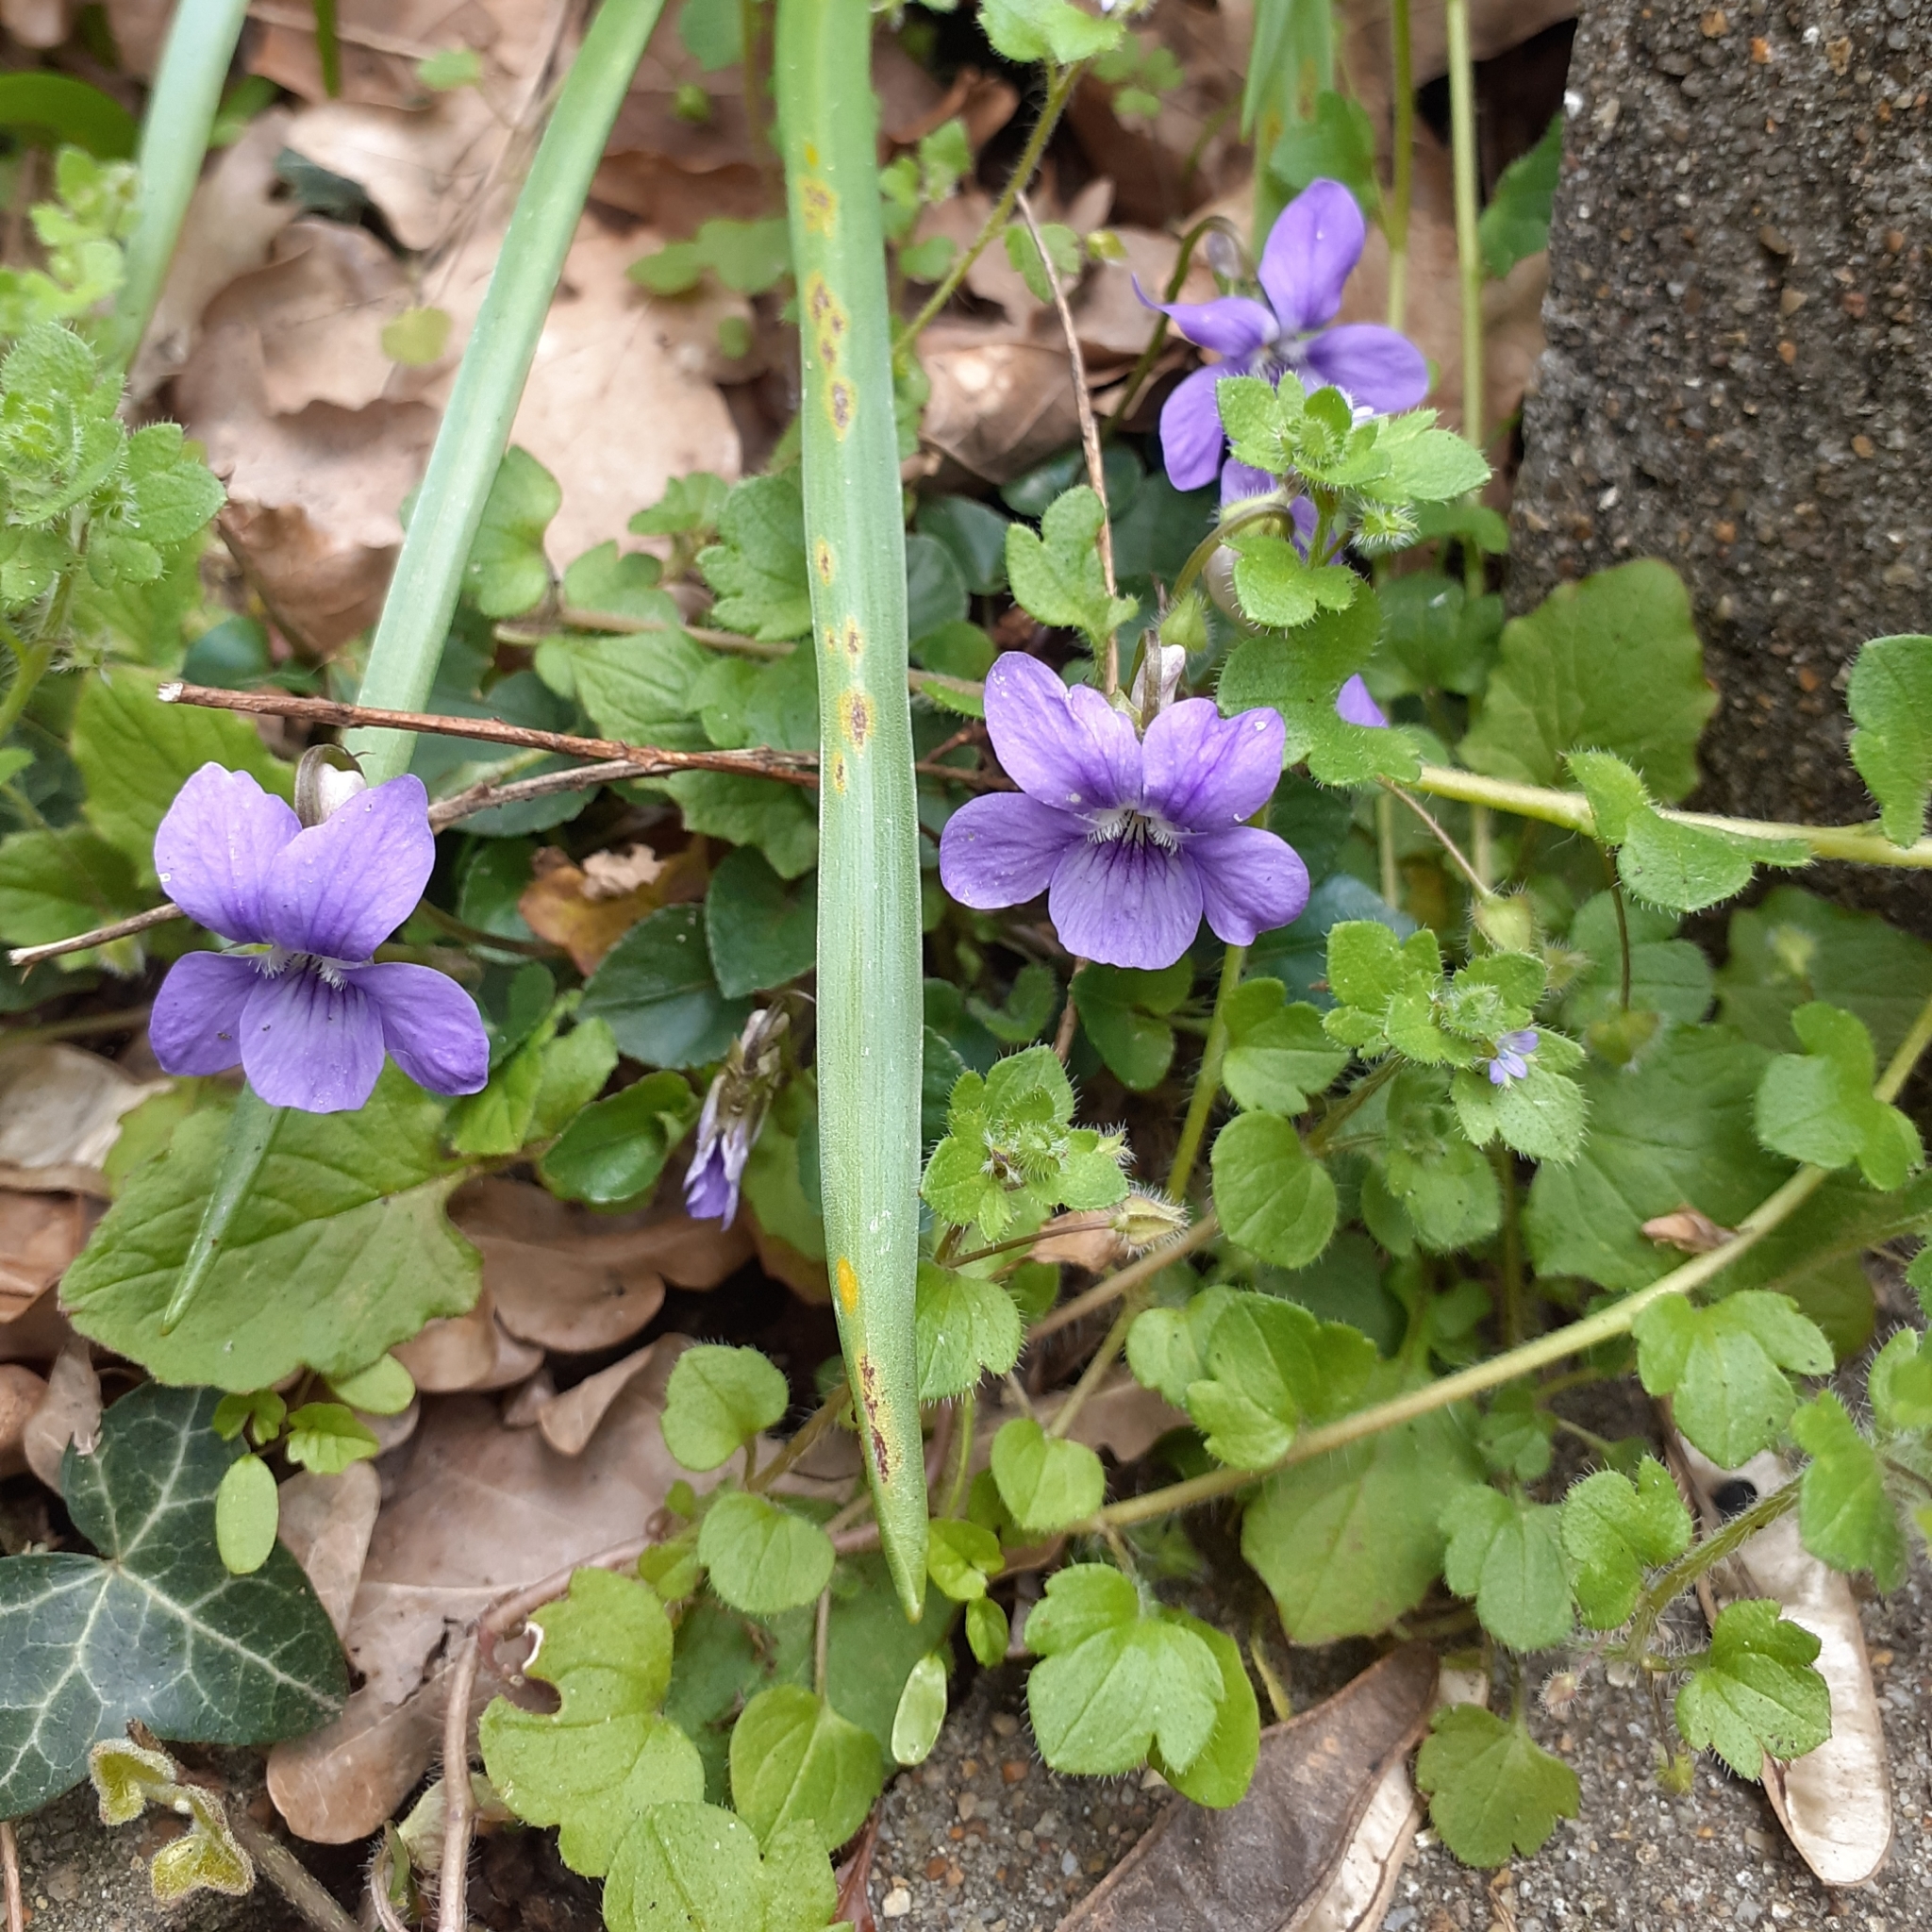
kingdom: Plantae
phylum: Tracheophyta
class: Magnoliopsida
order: Malpighiales
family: Violaceae
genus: Viola
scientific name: Viola riviniana
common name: Common dog-violet
